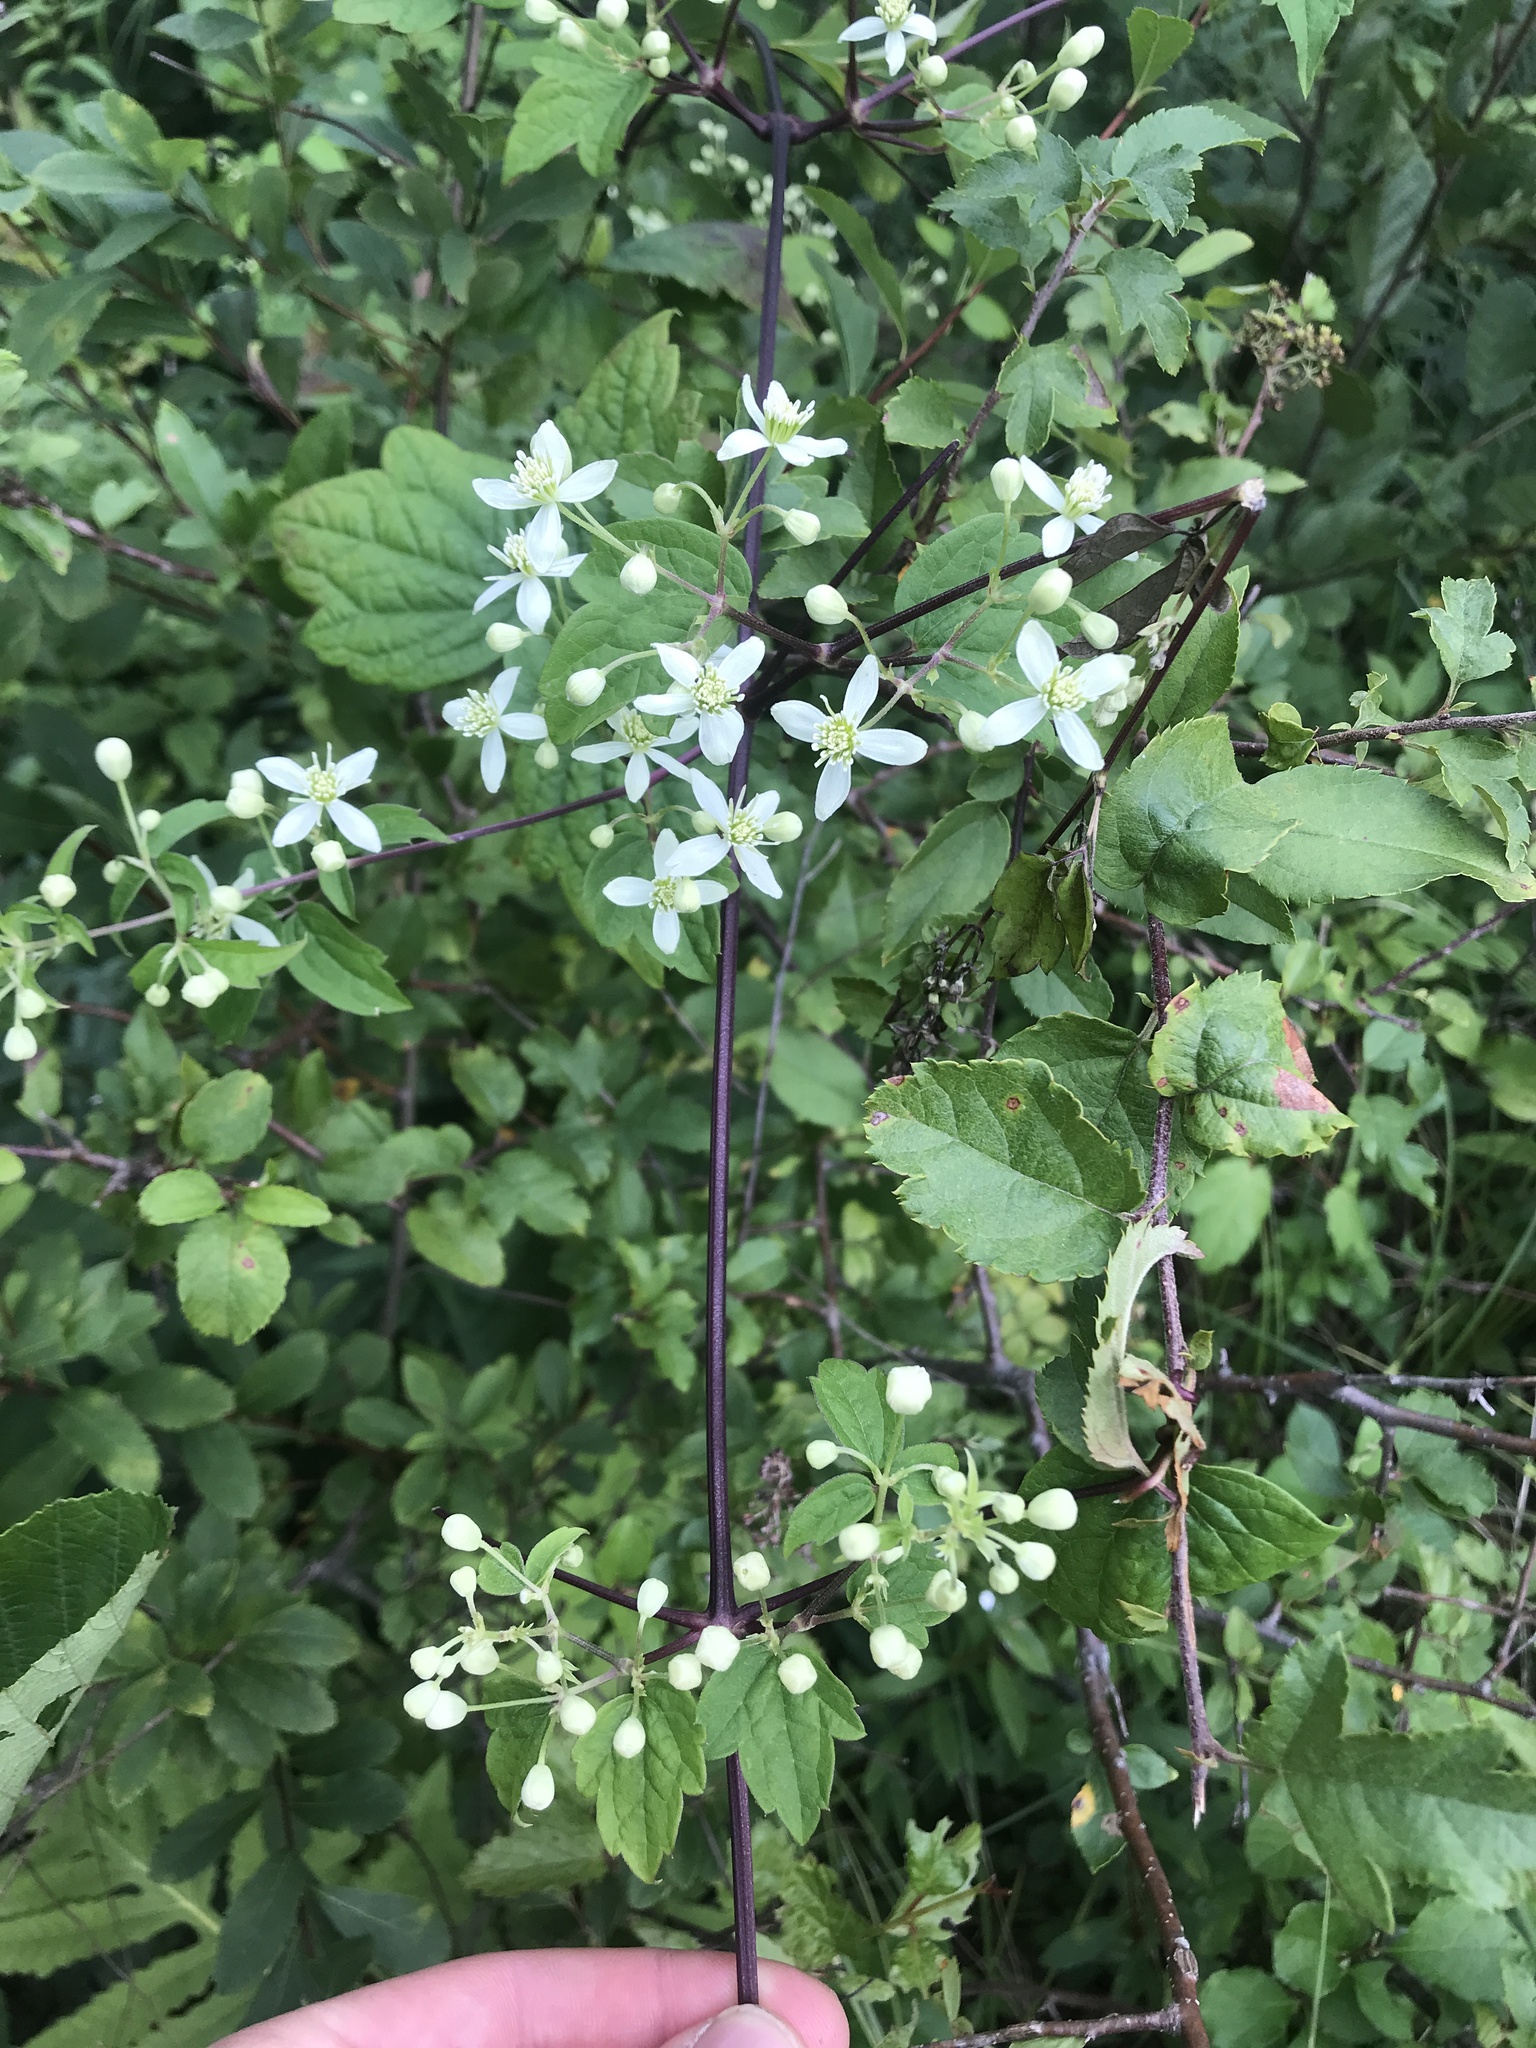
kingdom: Plantae
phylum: Tracheophyta
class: Magnoliopsida
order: Ranunculales
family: Ranunculaceae
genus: Clematis
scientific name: Clematis virginiana
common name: Virgin's-bower
